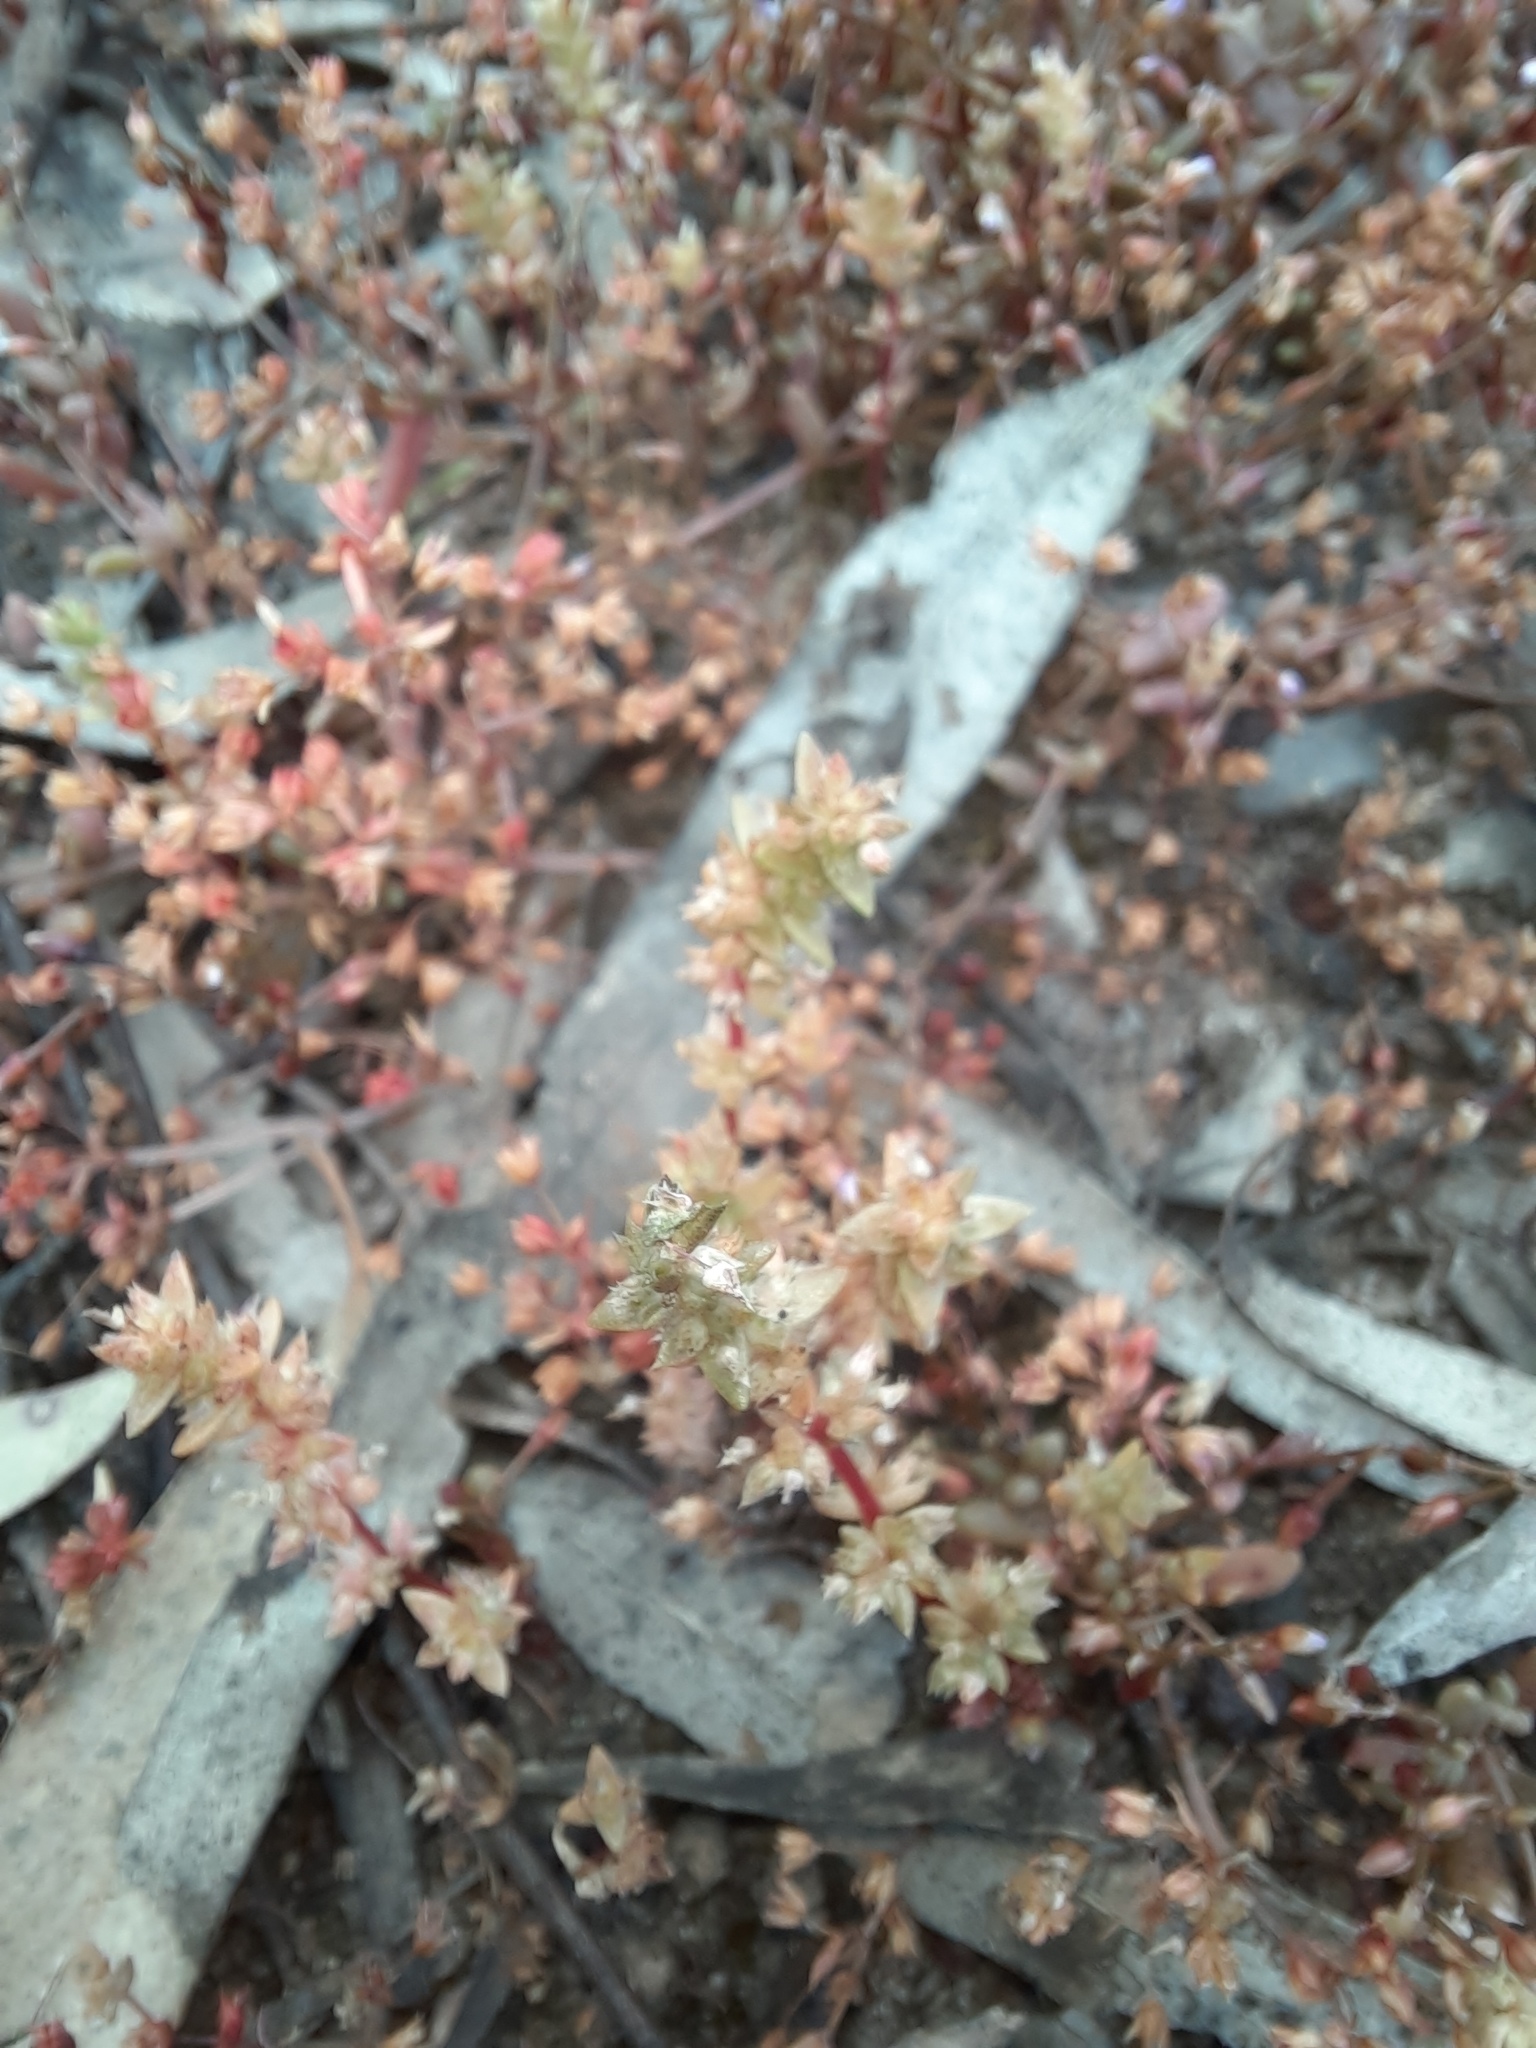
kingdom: Plantae
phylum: Tracheophyta
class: Magnoliopsida
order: Saxifragales
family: Crassulaceae
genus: Crassula
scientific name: Crassula sieberiana
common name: Siberian pygmyweed
